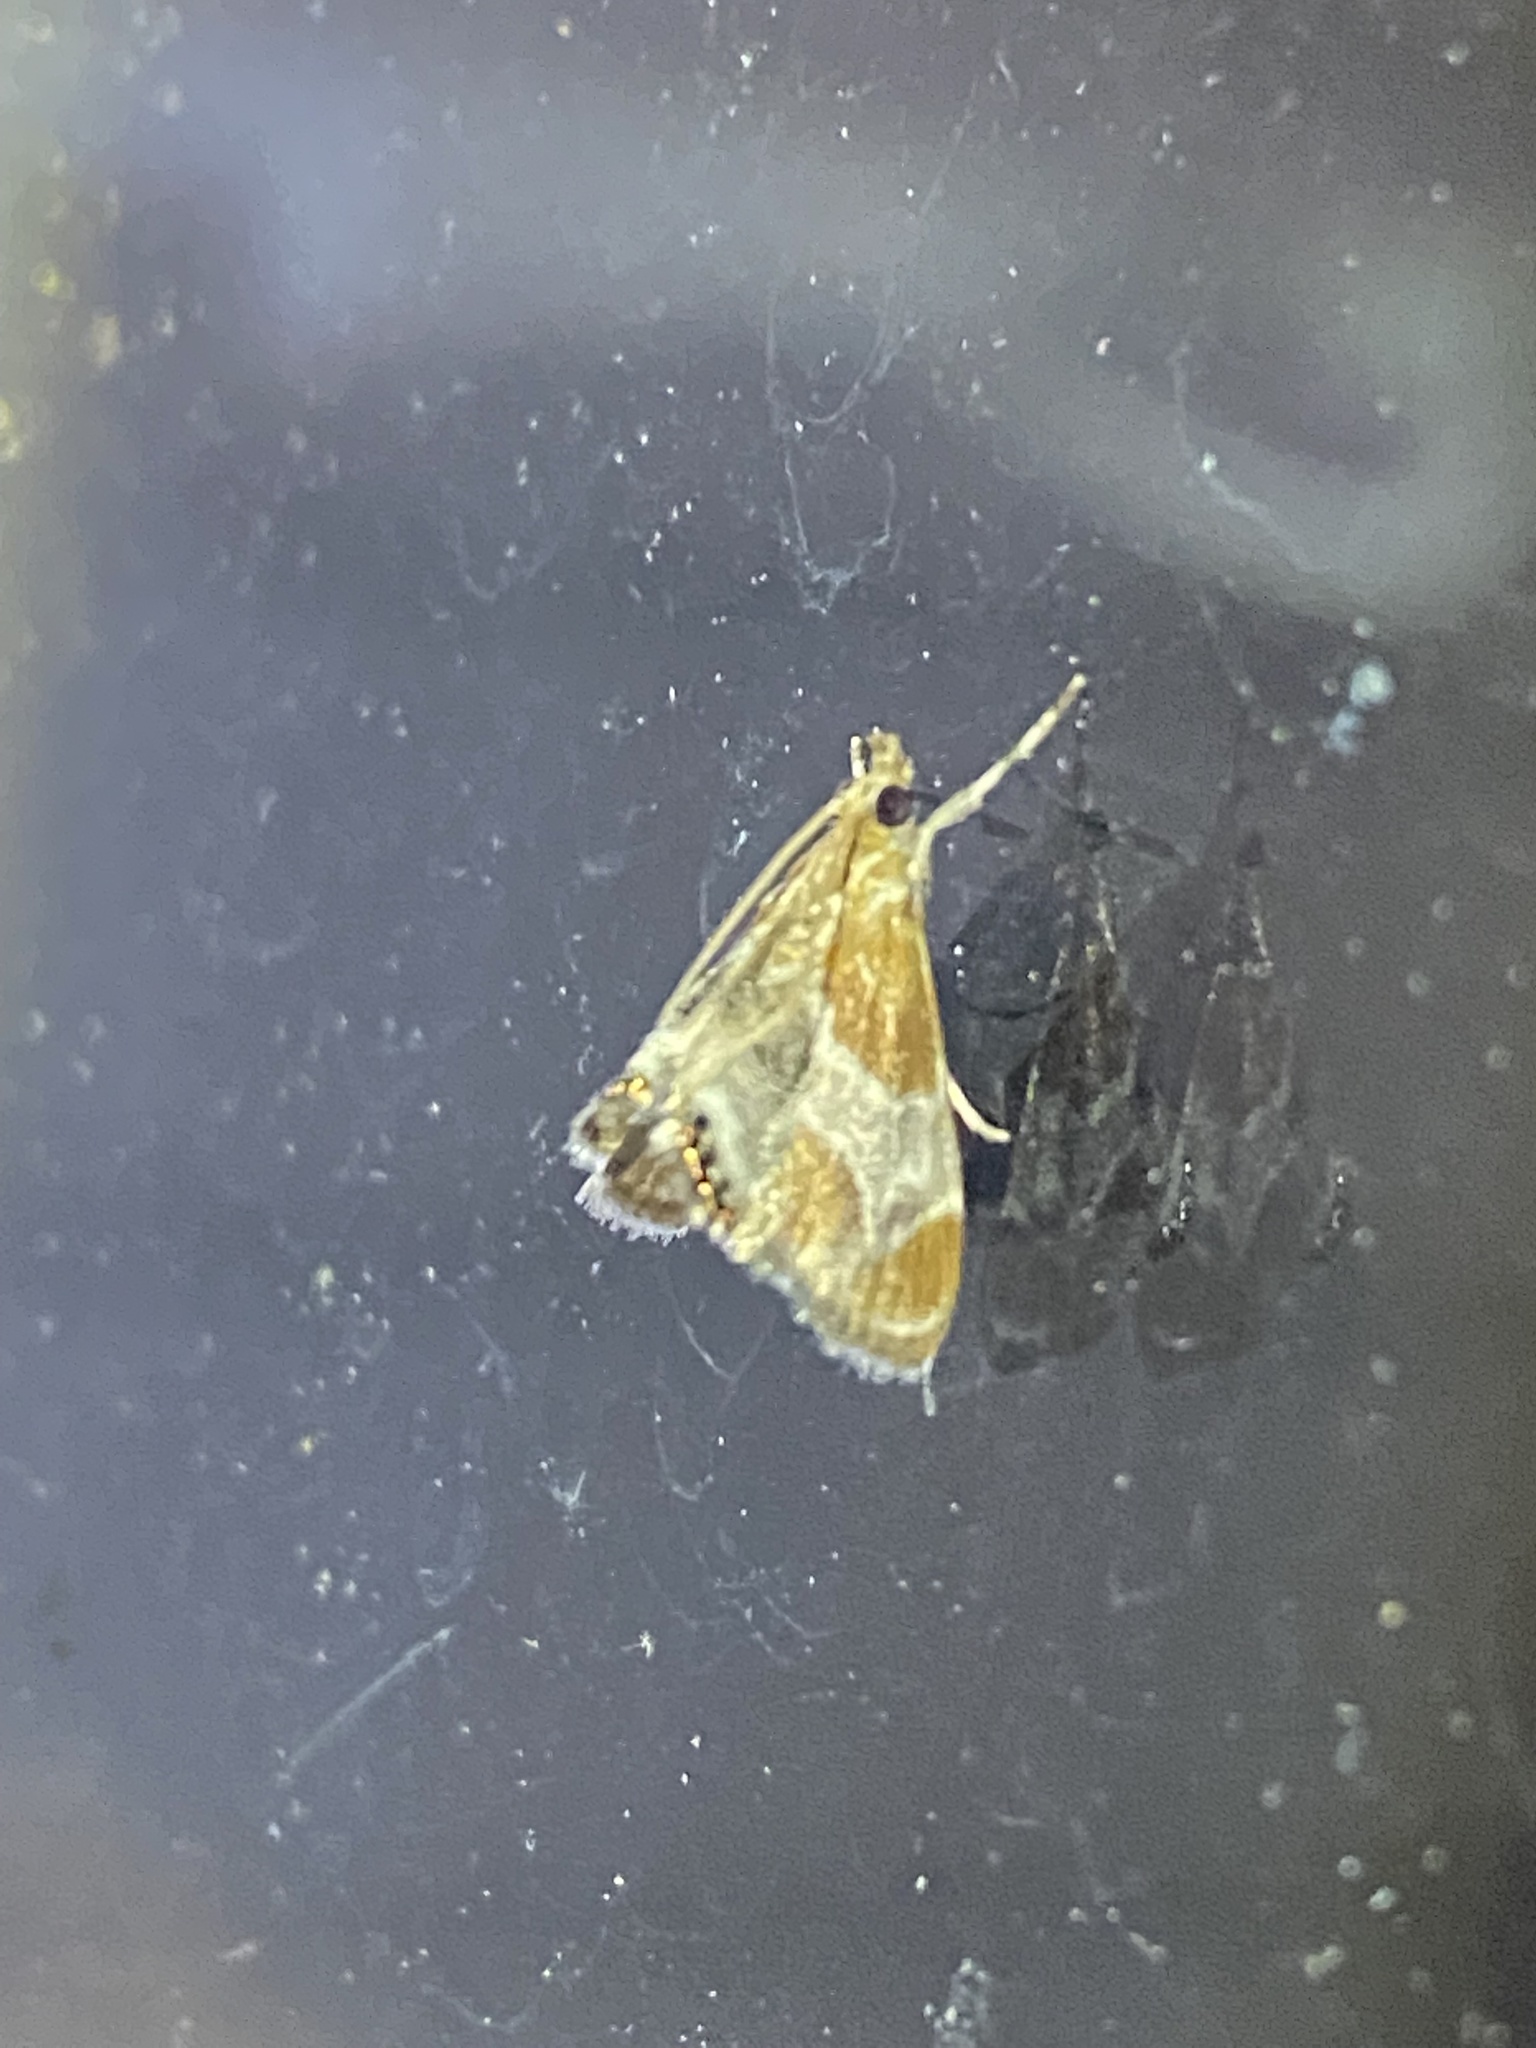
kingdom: Animalia
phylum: Arthropoda
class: Insecta
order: Lepidoptera
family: Crambidae
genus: Chalcoela
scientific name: Chalcoela pegasalis
